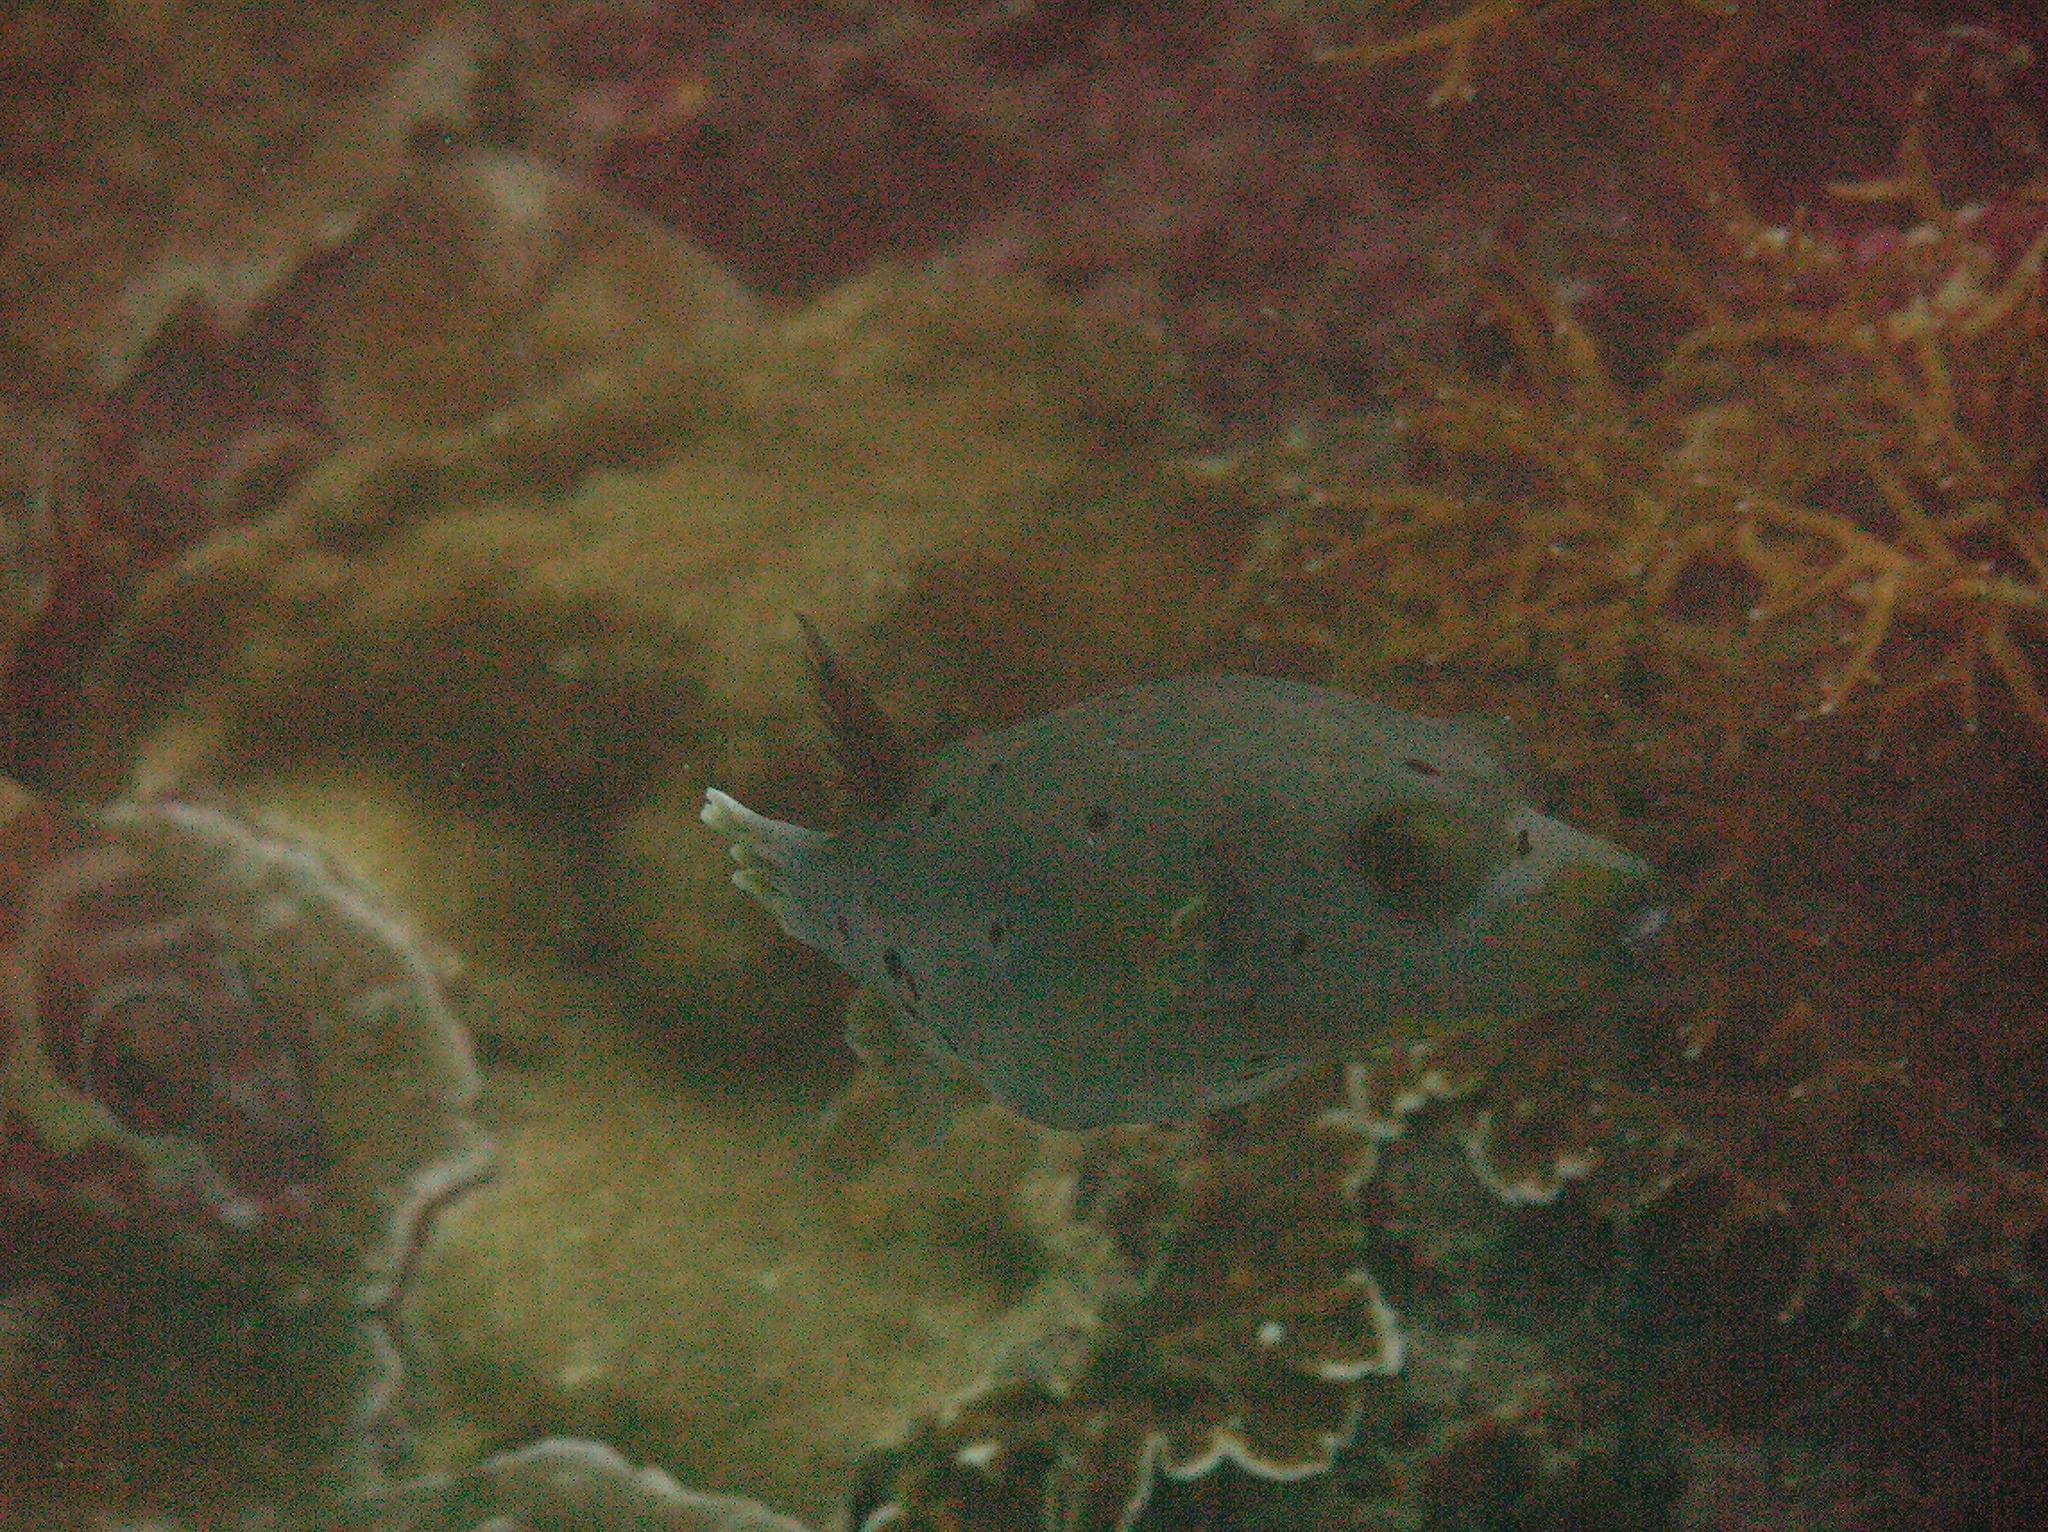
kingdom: Animalia
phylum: Chordata
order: Tetraodontiformes
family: Tetraodontidae
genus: Arothron
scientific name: Arothron nigropunctatus
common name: Black spotted blow fish
